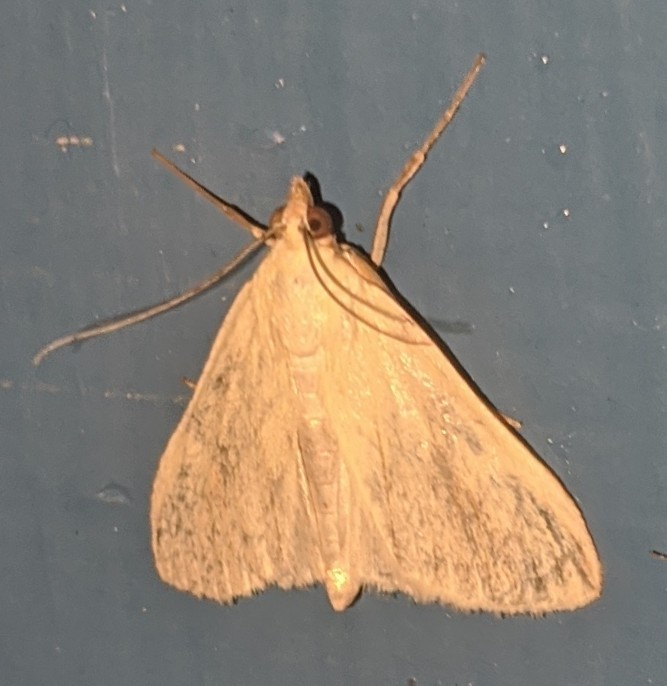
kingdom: Animalia
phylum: Arthropoda
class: Insecta
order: Lepidoptera
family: Crambidae
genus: Sitochroa
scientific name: Sitochroa palealis
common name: Greenish-yellow sitochroa moth
